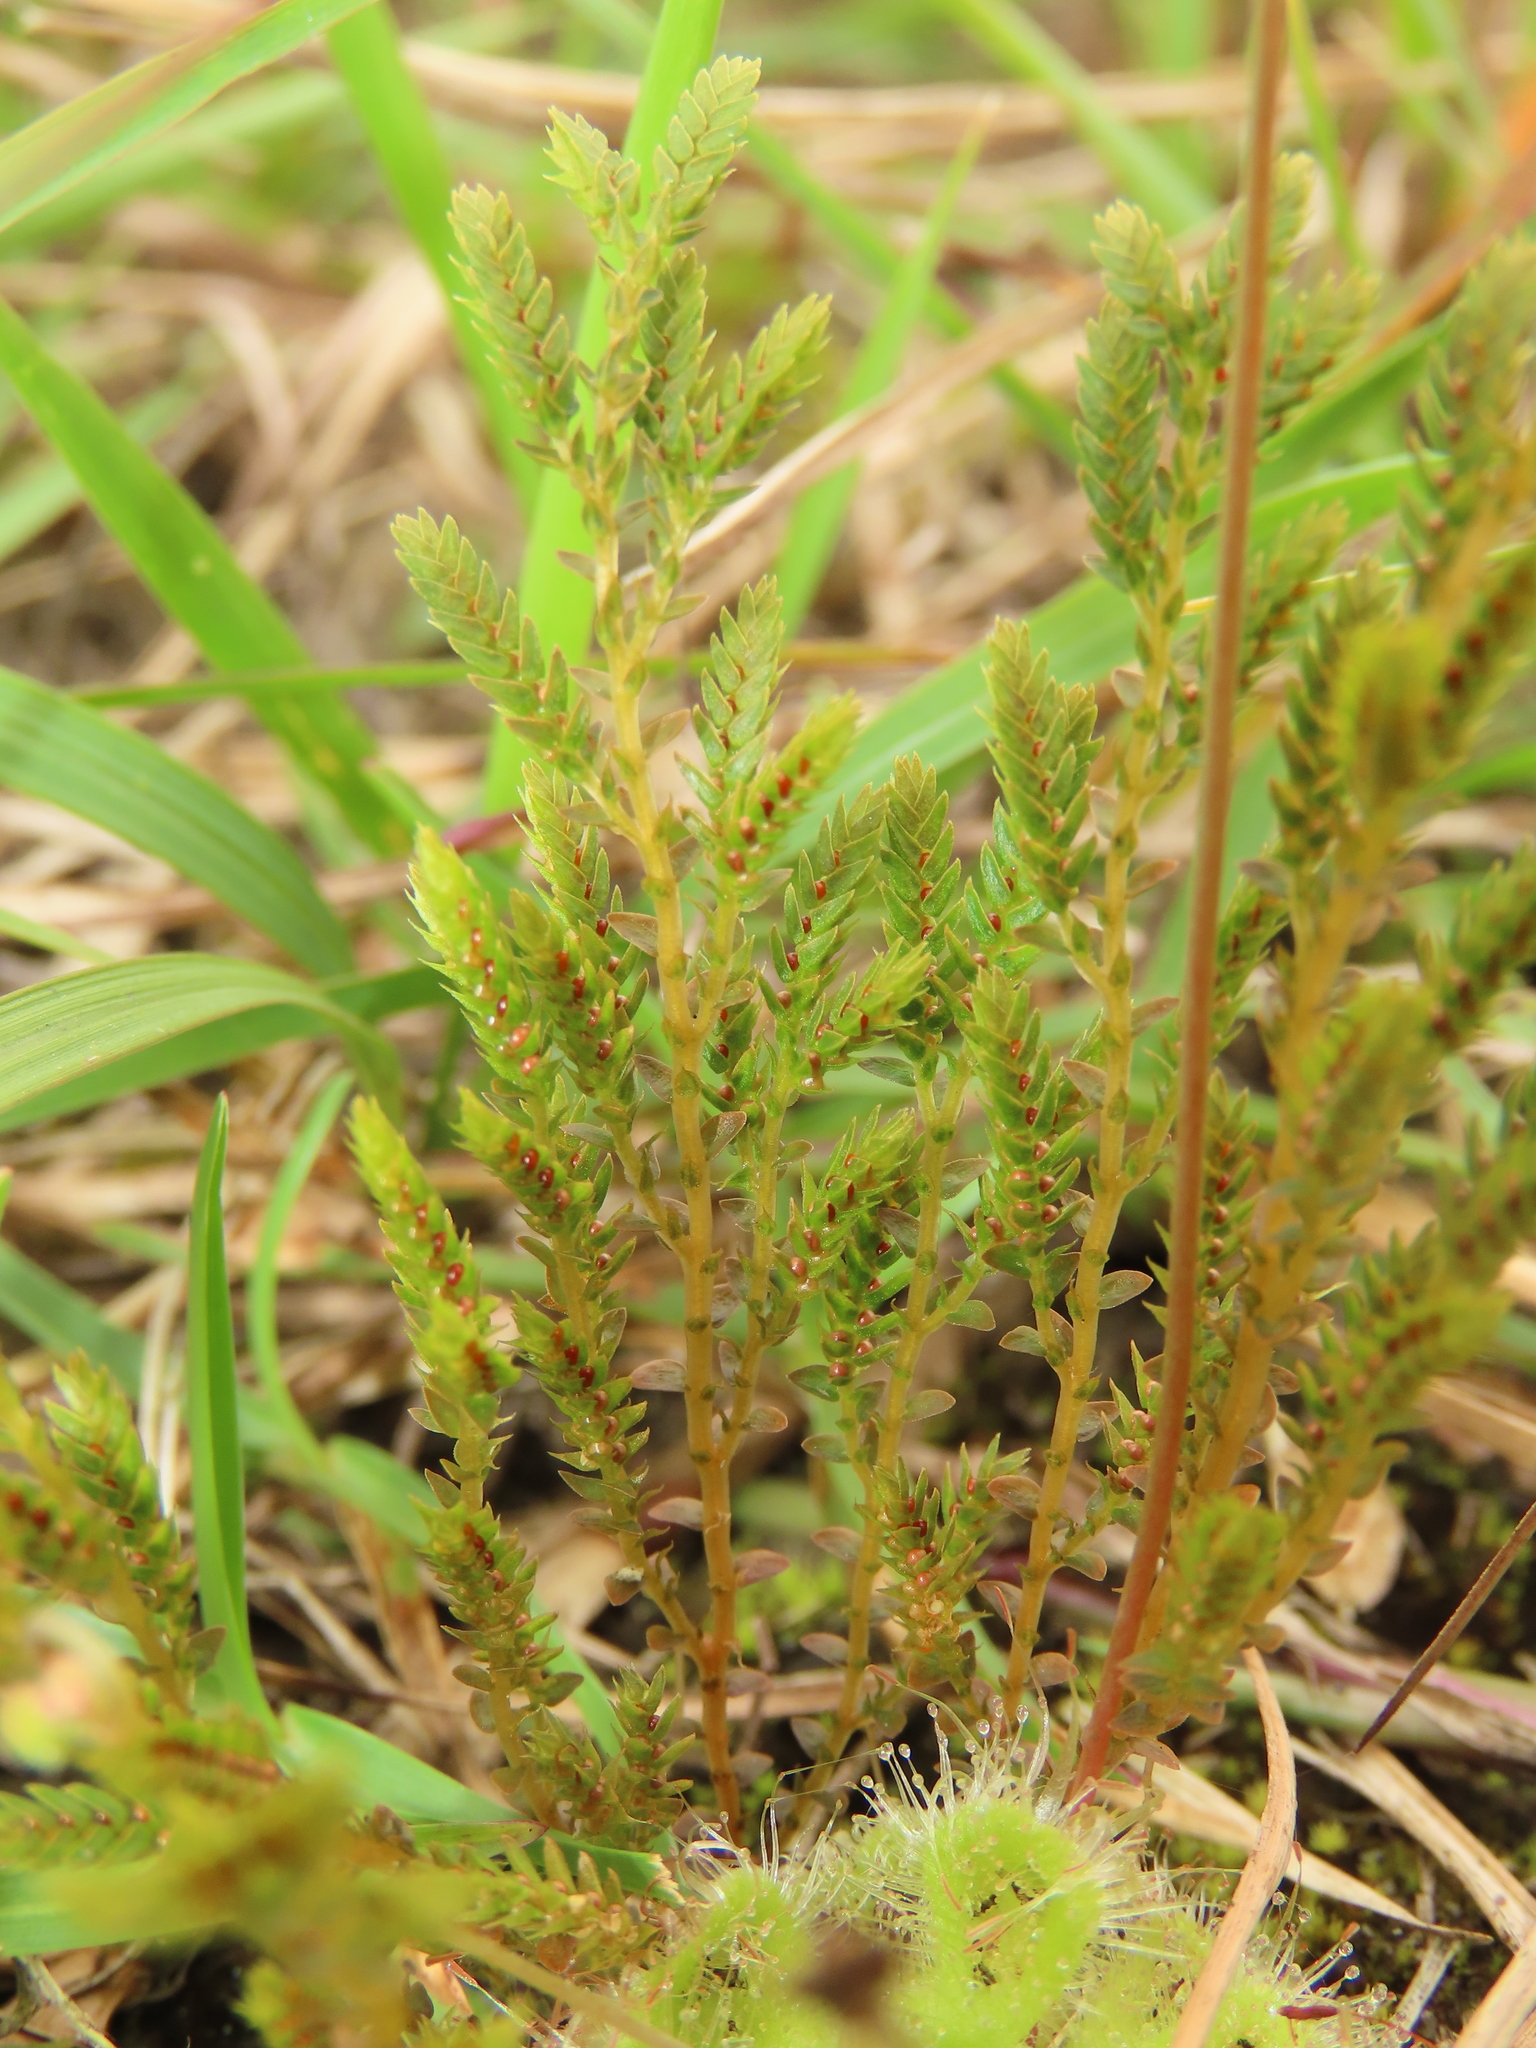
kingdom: Plantae
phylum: Tracheophyta
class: Lycopodiopsida
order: Selaginellales
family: Selaginellaceae
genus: Selaginella
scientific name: Selaginella aristata
